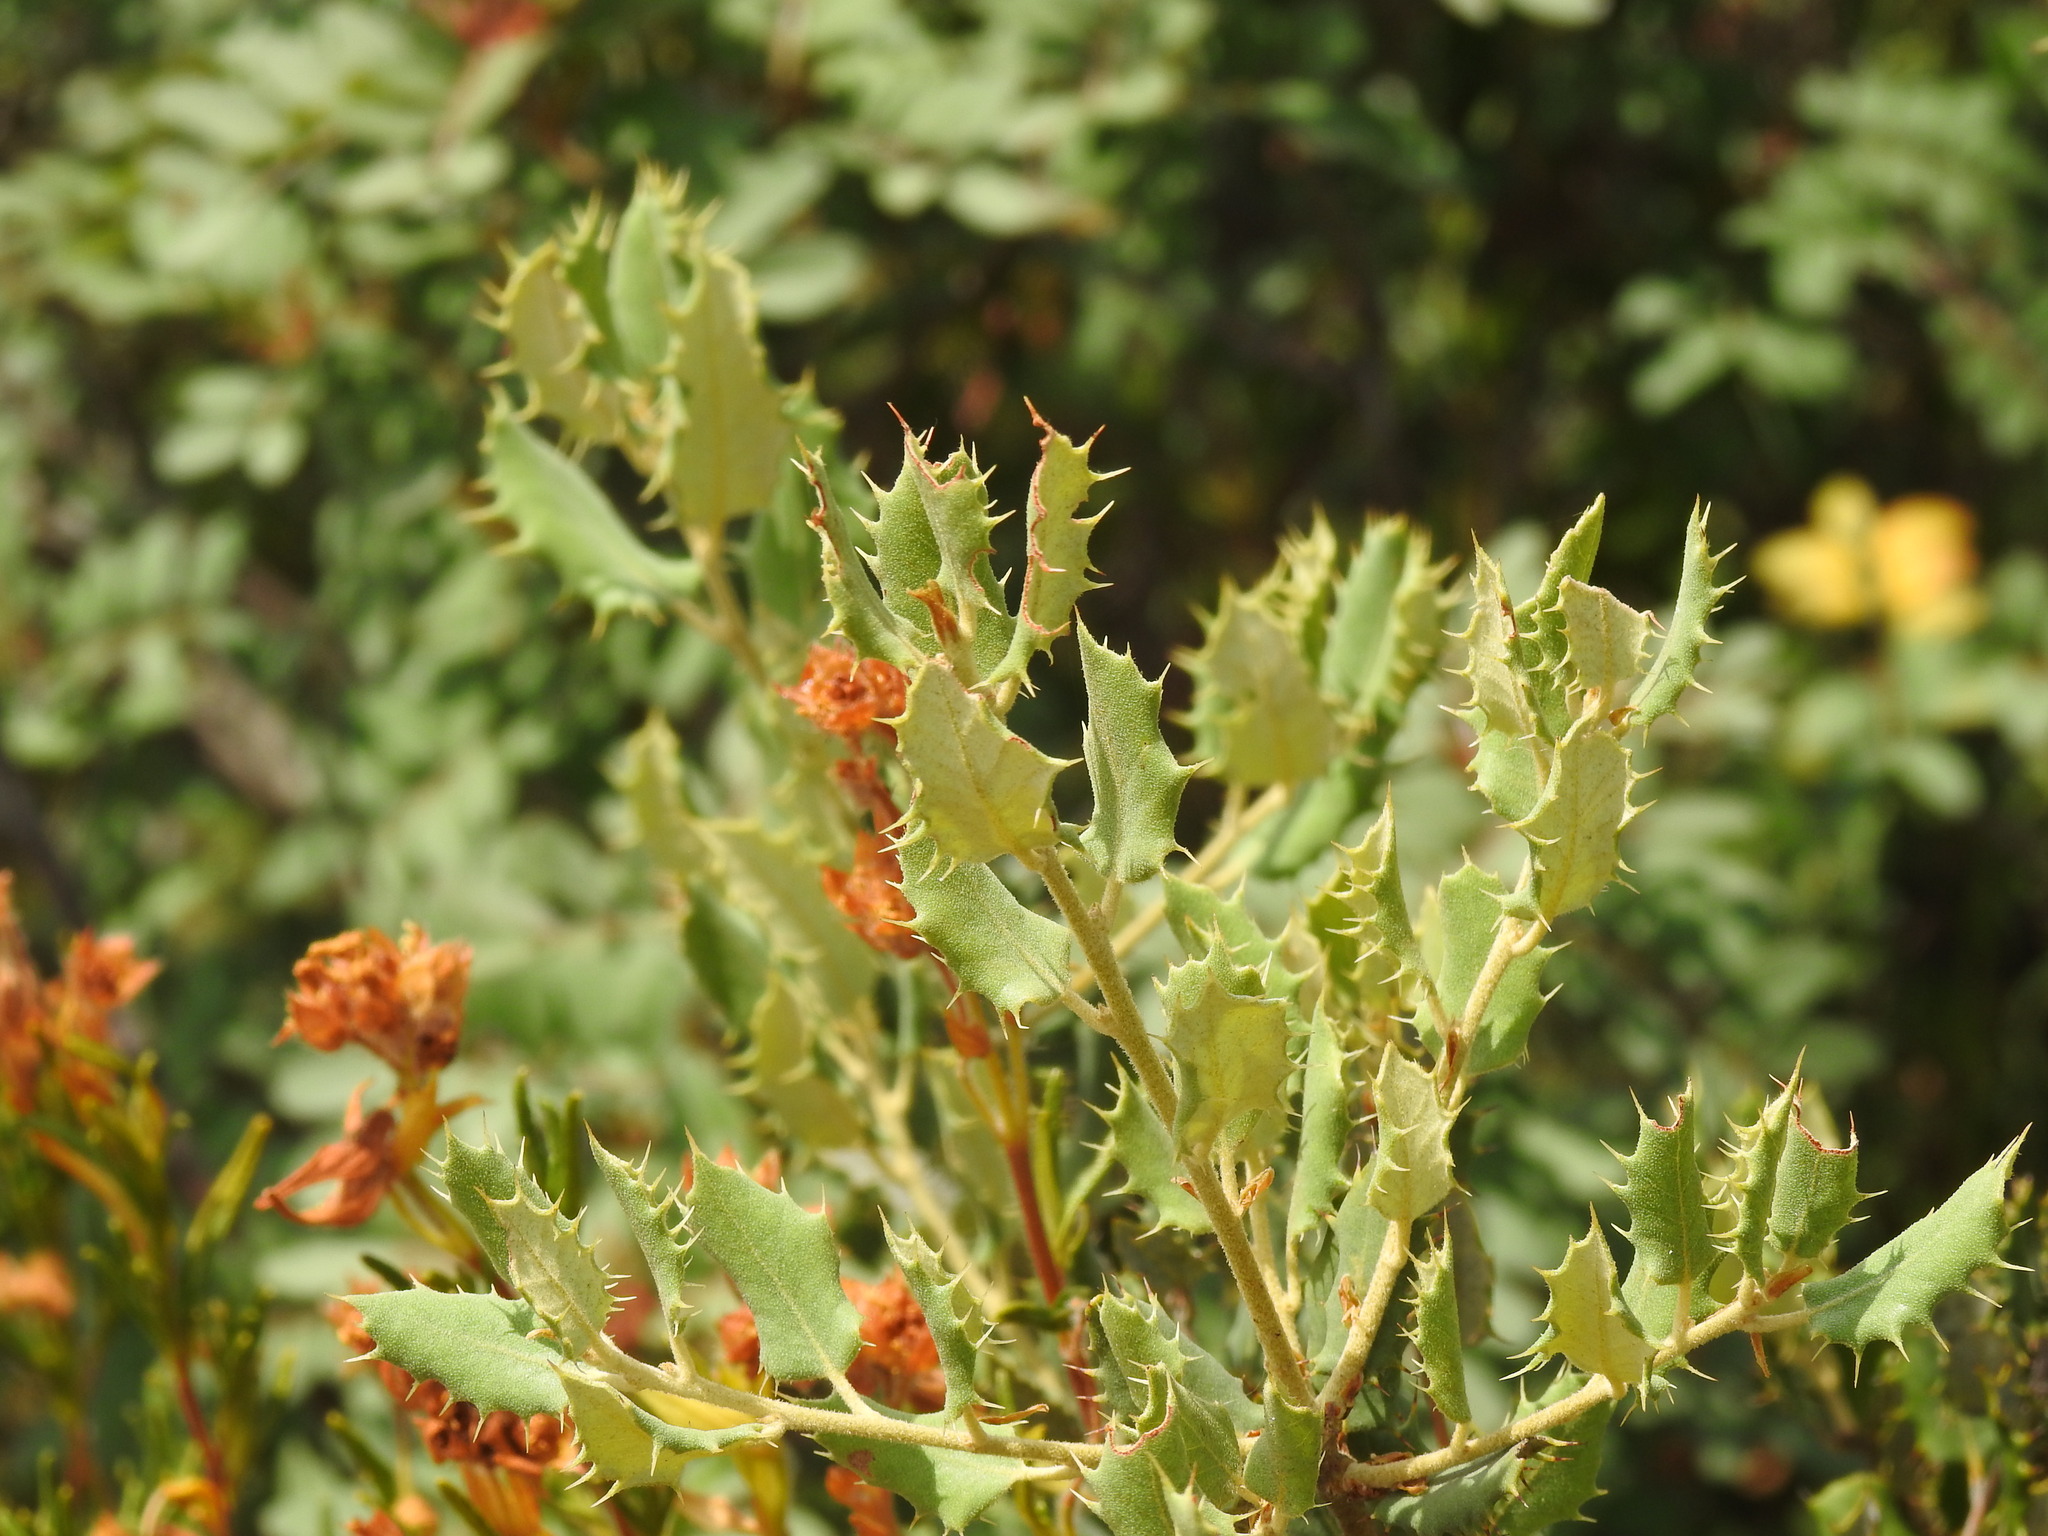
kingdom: Plantae
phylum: Tracheophyta
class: Magnoliopsida
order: Fagales
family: Fagaceae
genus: Quercus
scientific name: Quercus rotundifolia
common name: Holm oak
